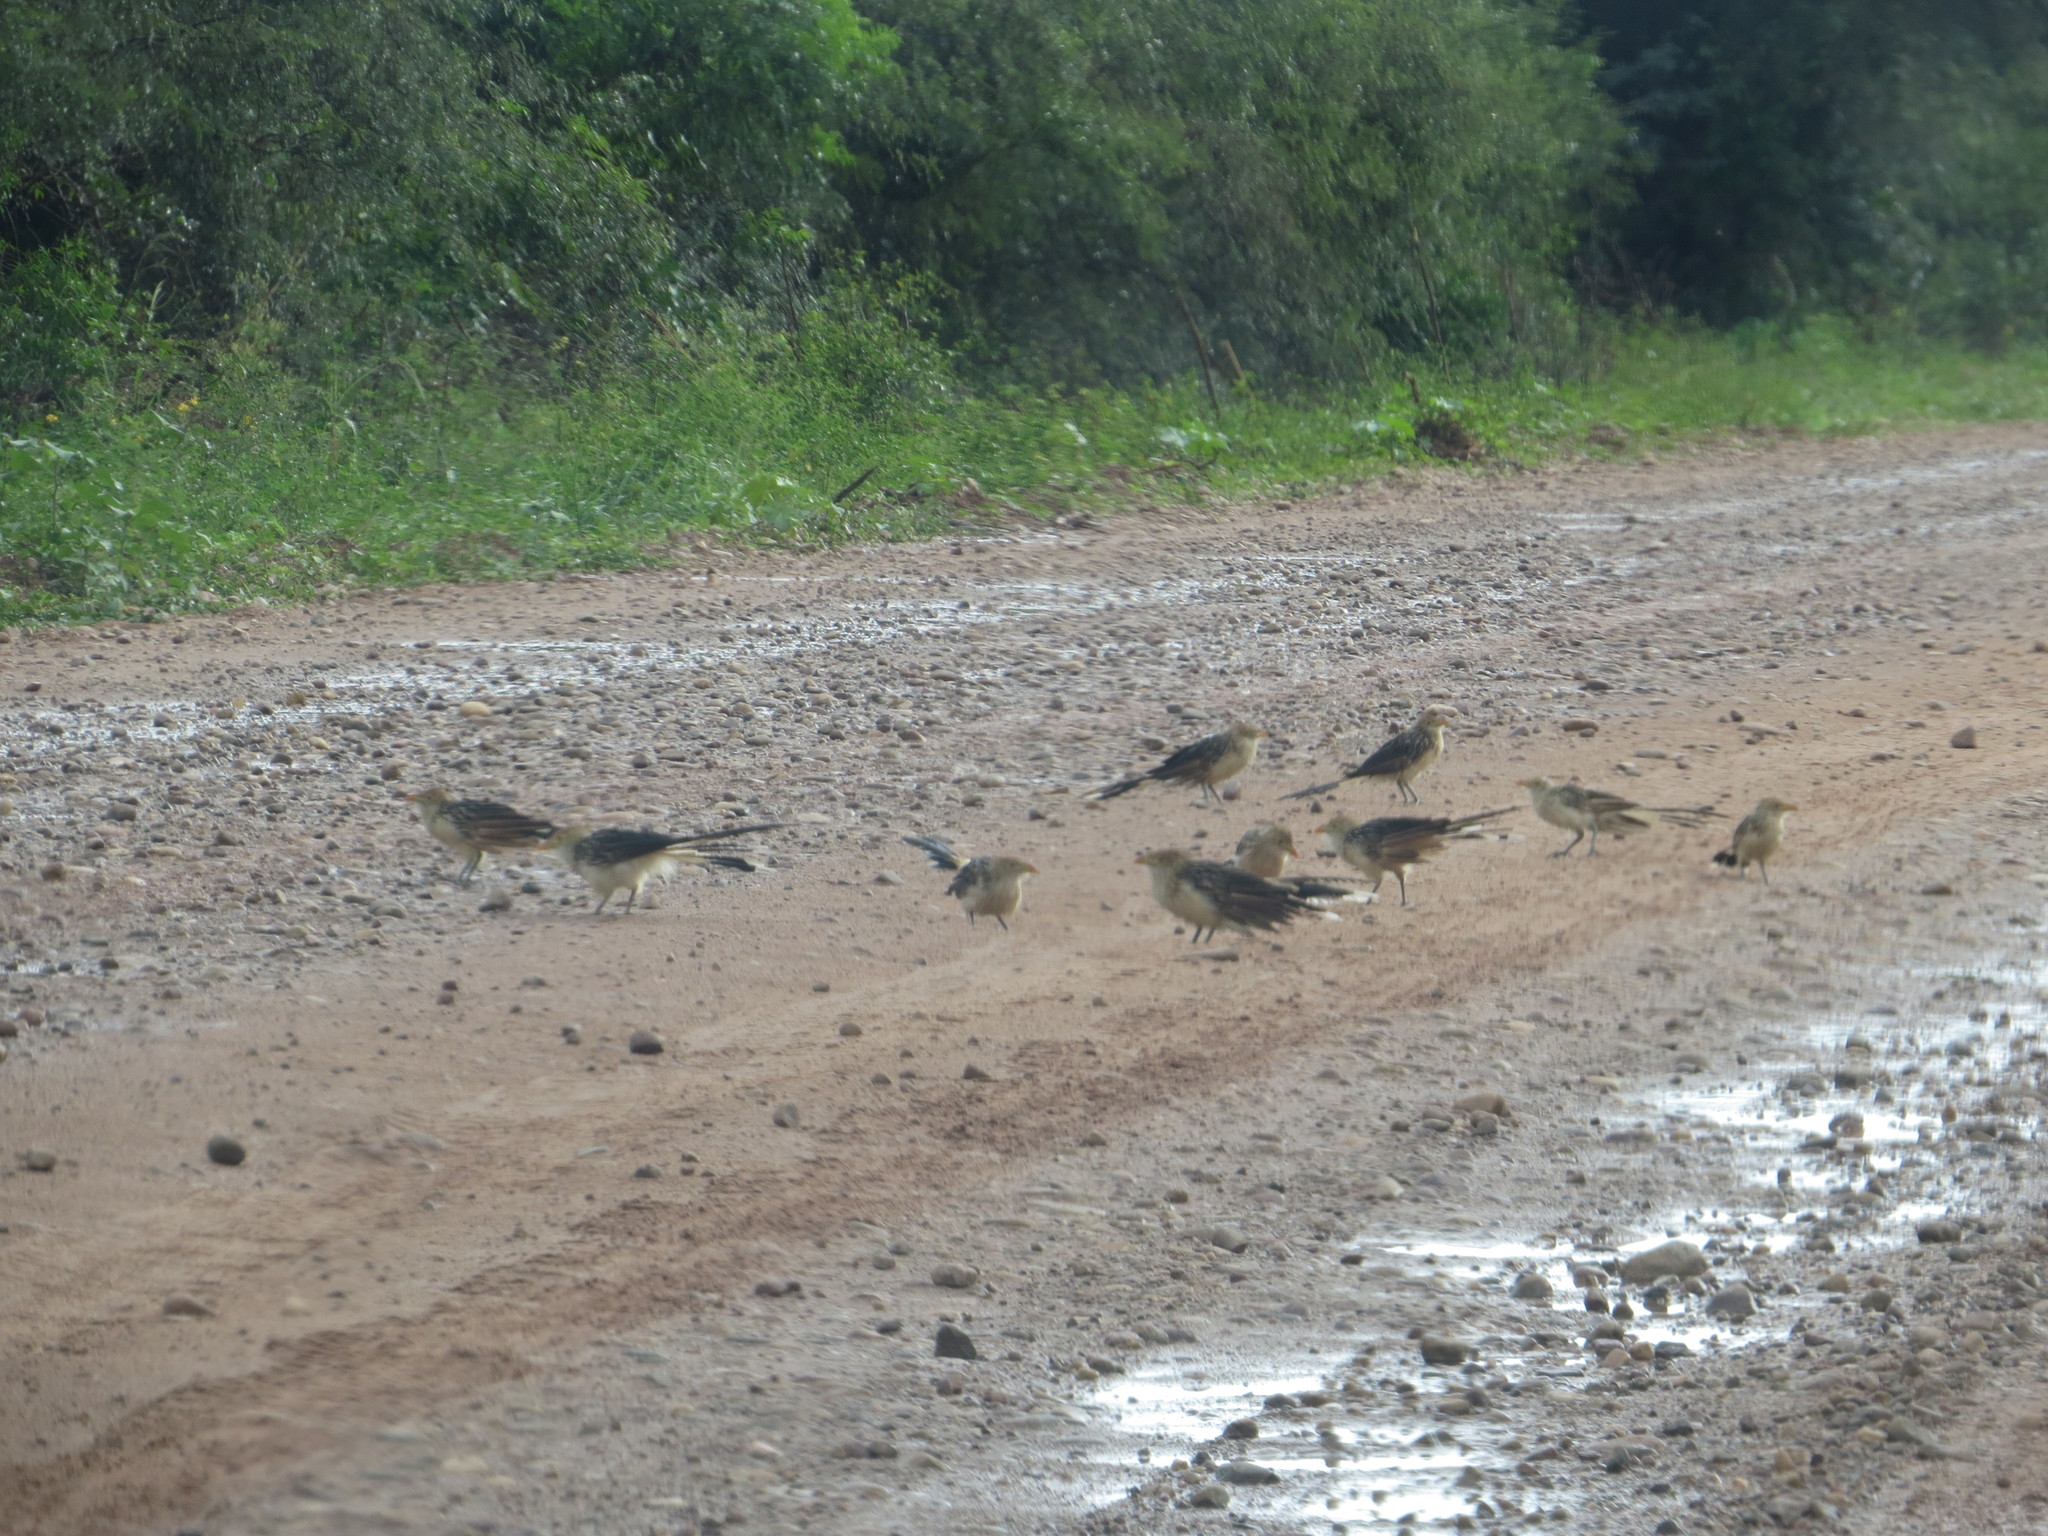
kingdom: Animalia
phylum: Chordata
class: Aves
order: Cuculiformes
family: Cuculidae
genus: Guira
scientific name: Guira guira
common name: Guira cuckoo
